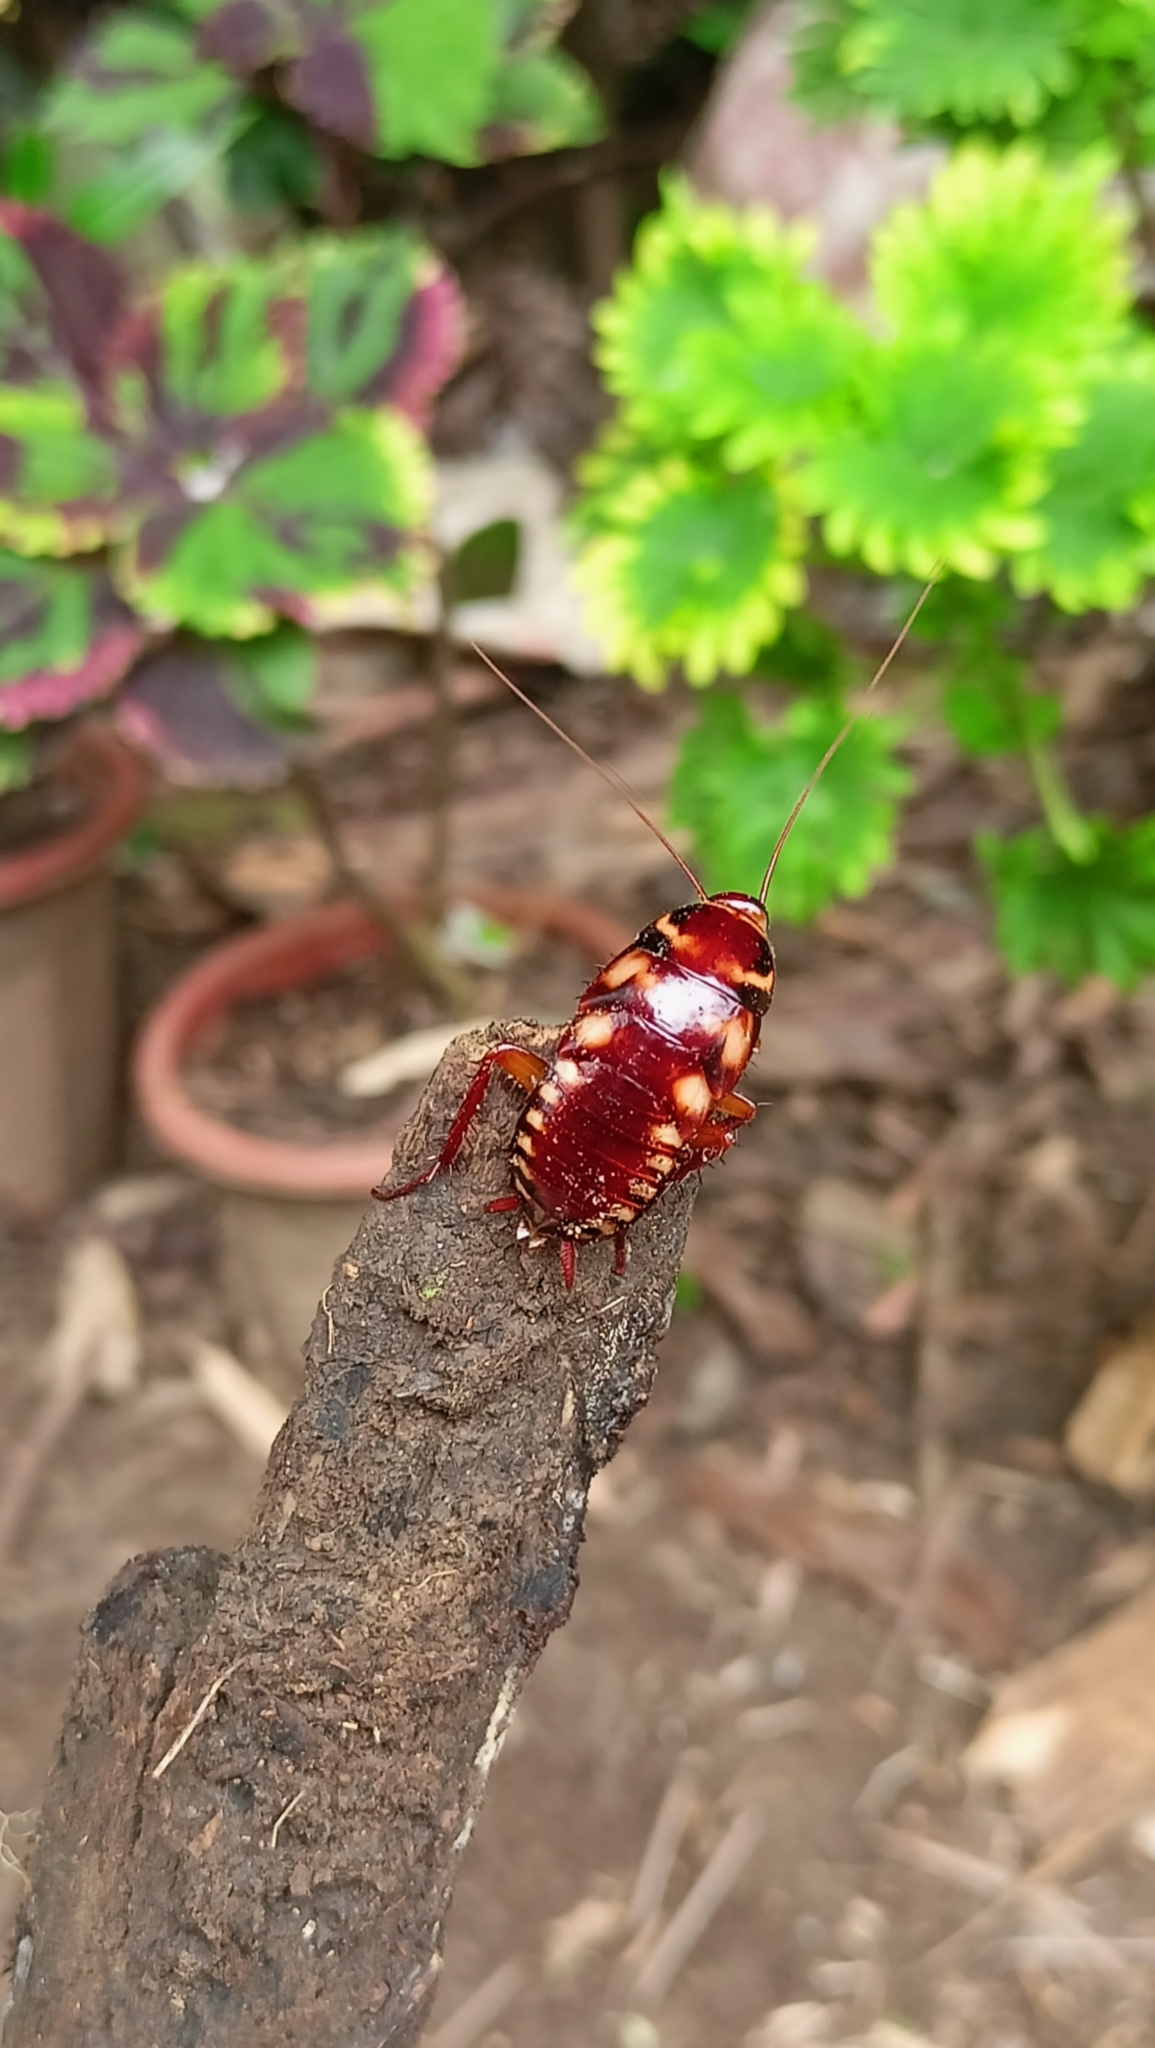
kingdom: Animalia
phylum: Arthropoda
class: Insecta
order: Blattodea
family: Blattidae
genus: Periplaneta
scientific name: Periplaneta australasiae
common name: Australian cockroach
